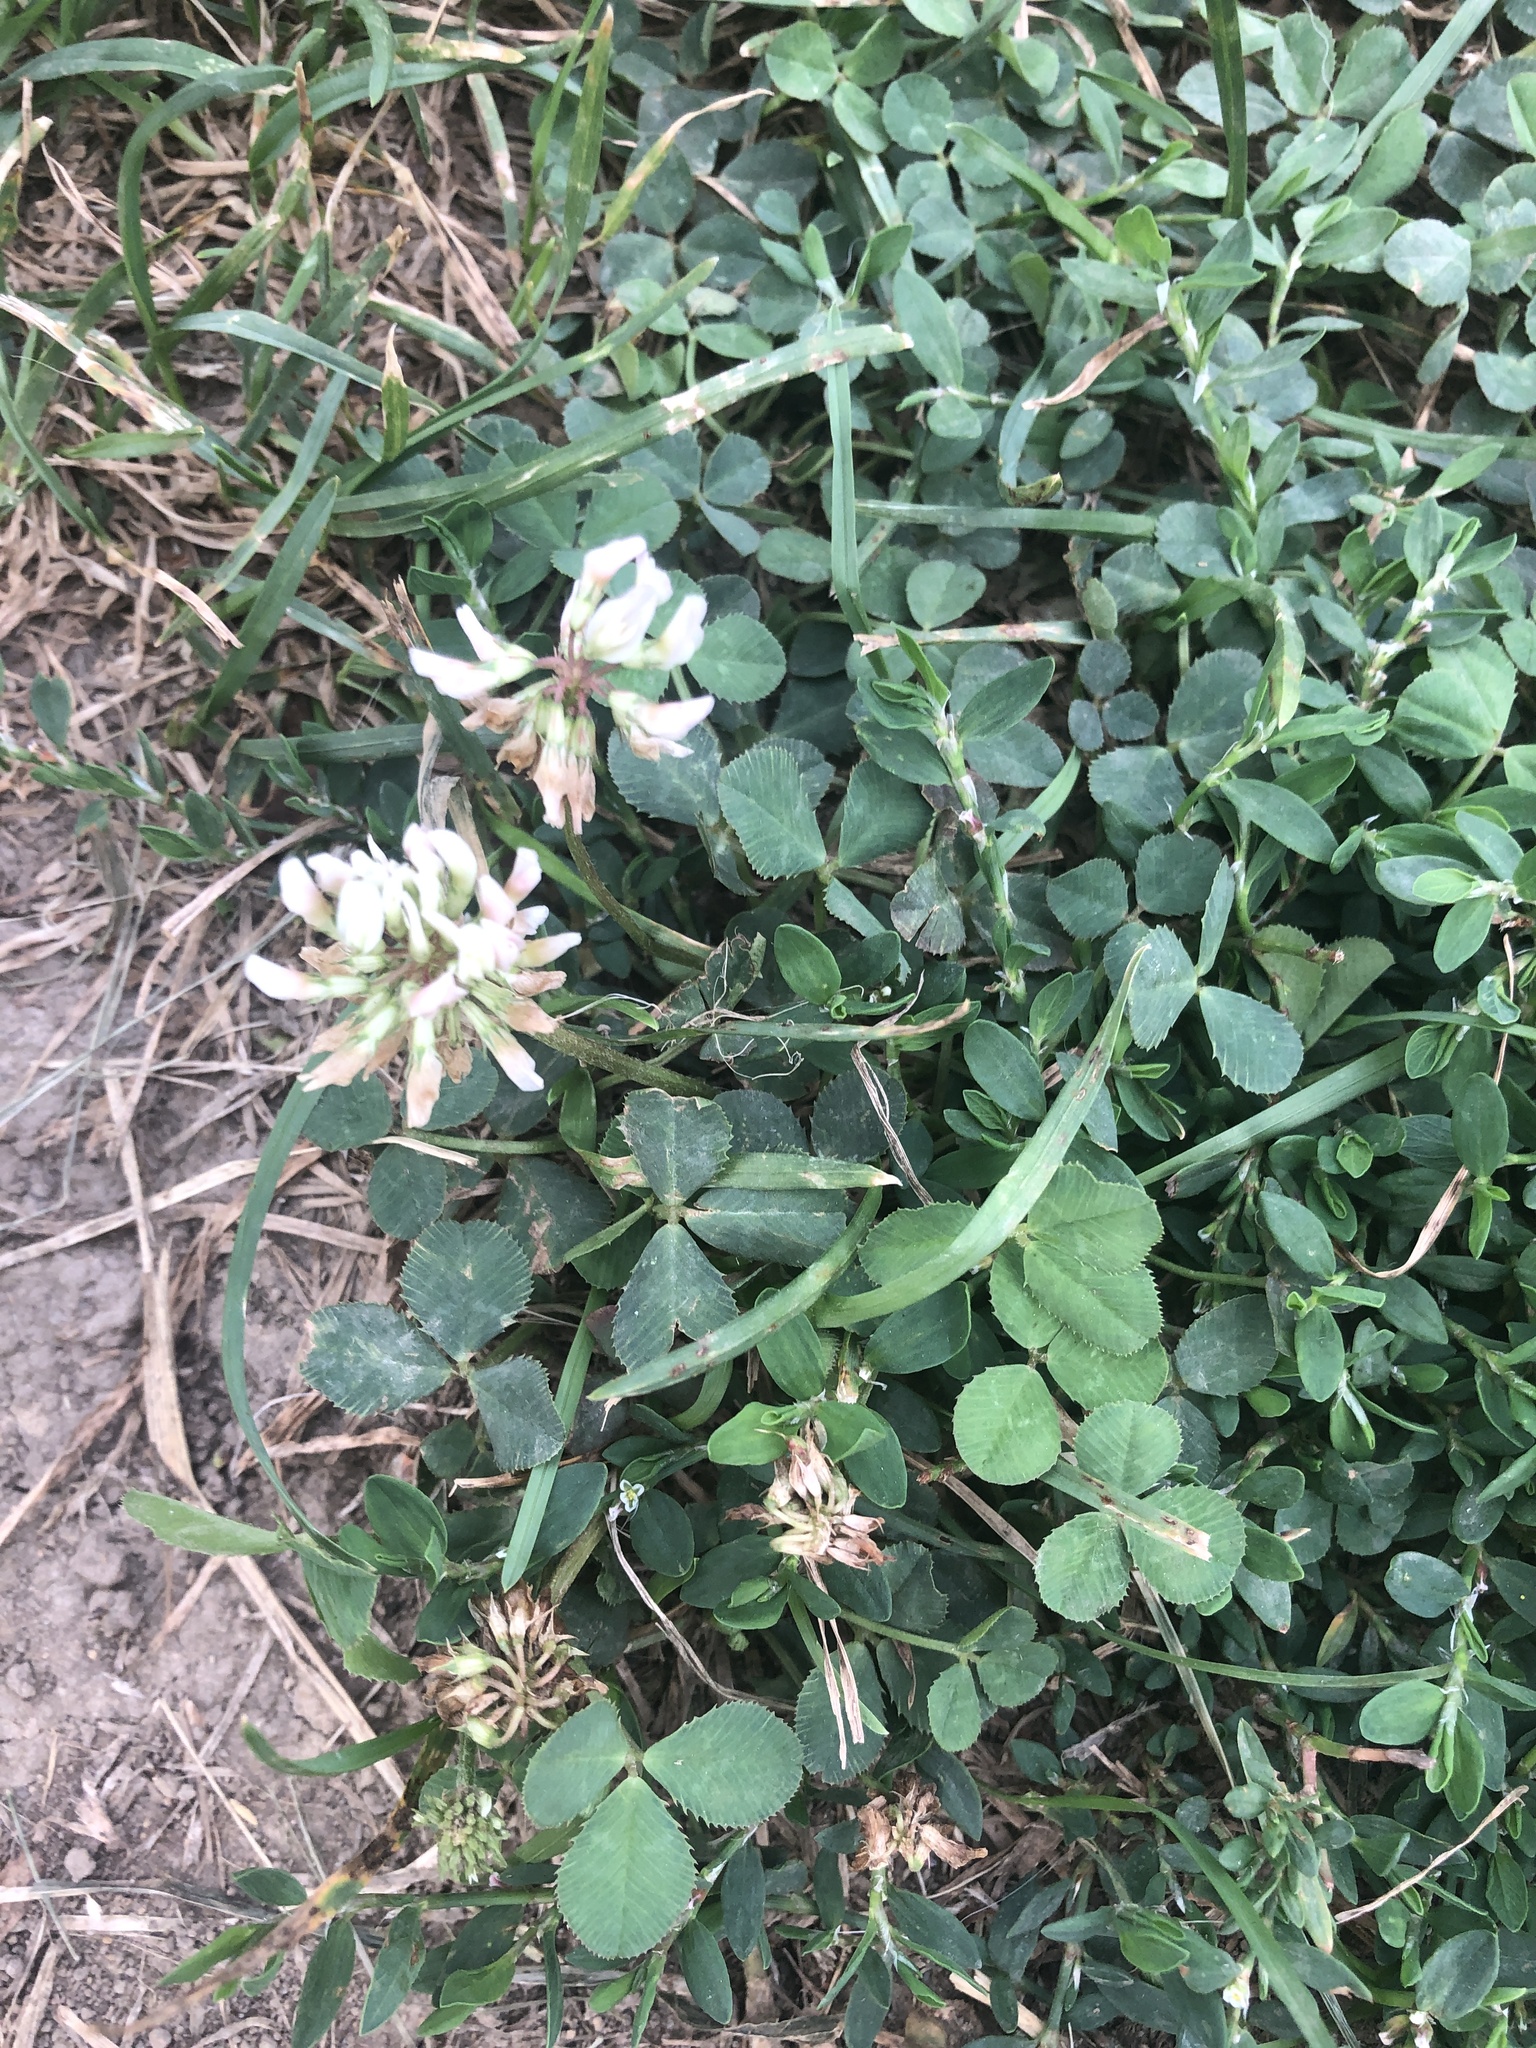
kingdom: Plantae
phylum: Tracheophyta
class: Magnoliopsida
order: Fabales
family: Fabaceae
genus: Trifolium
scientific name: Trifolium repens
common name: White clover
